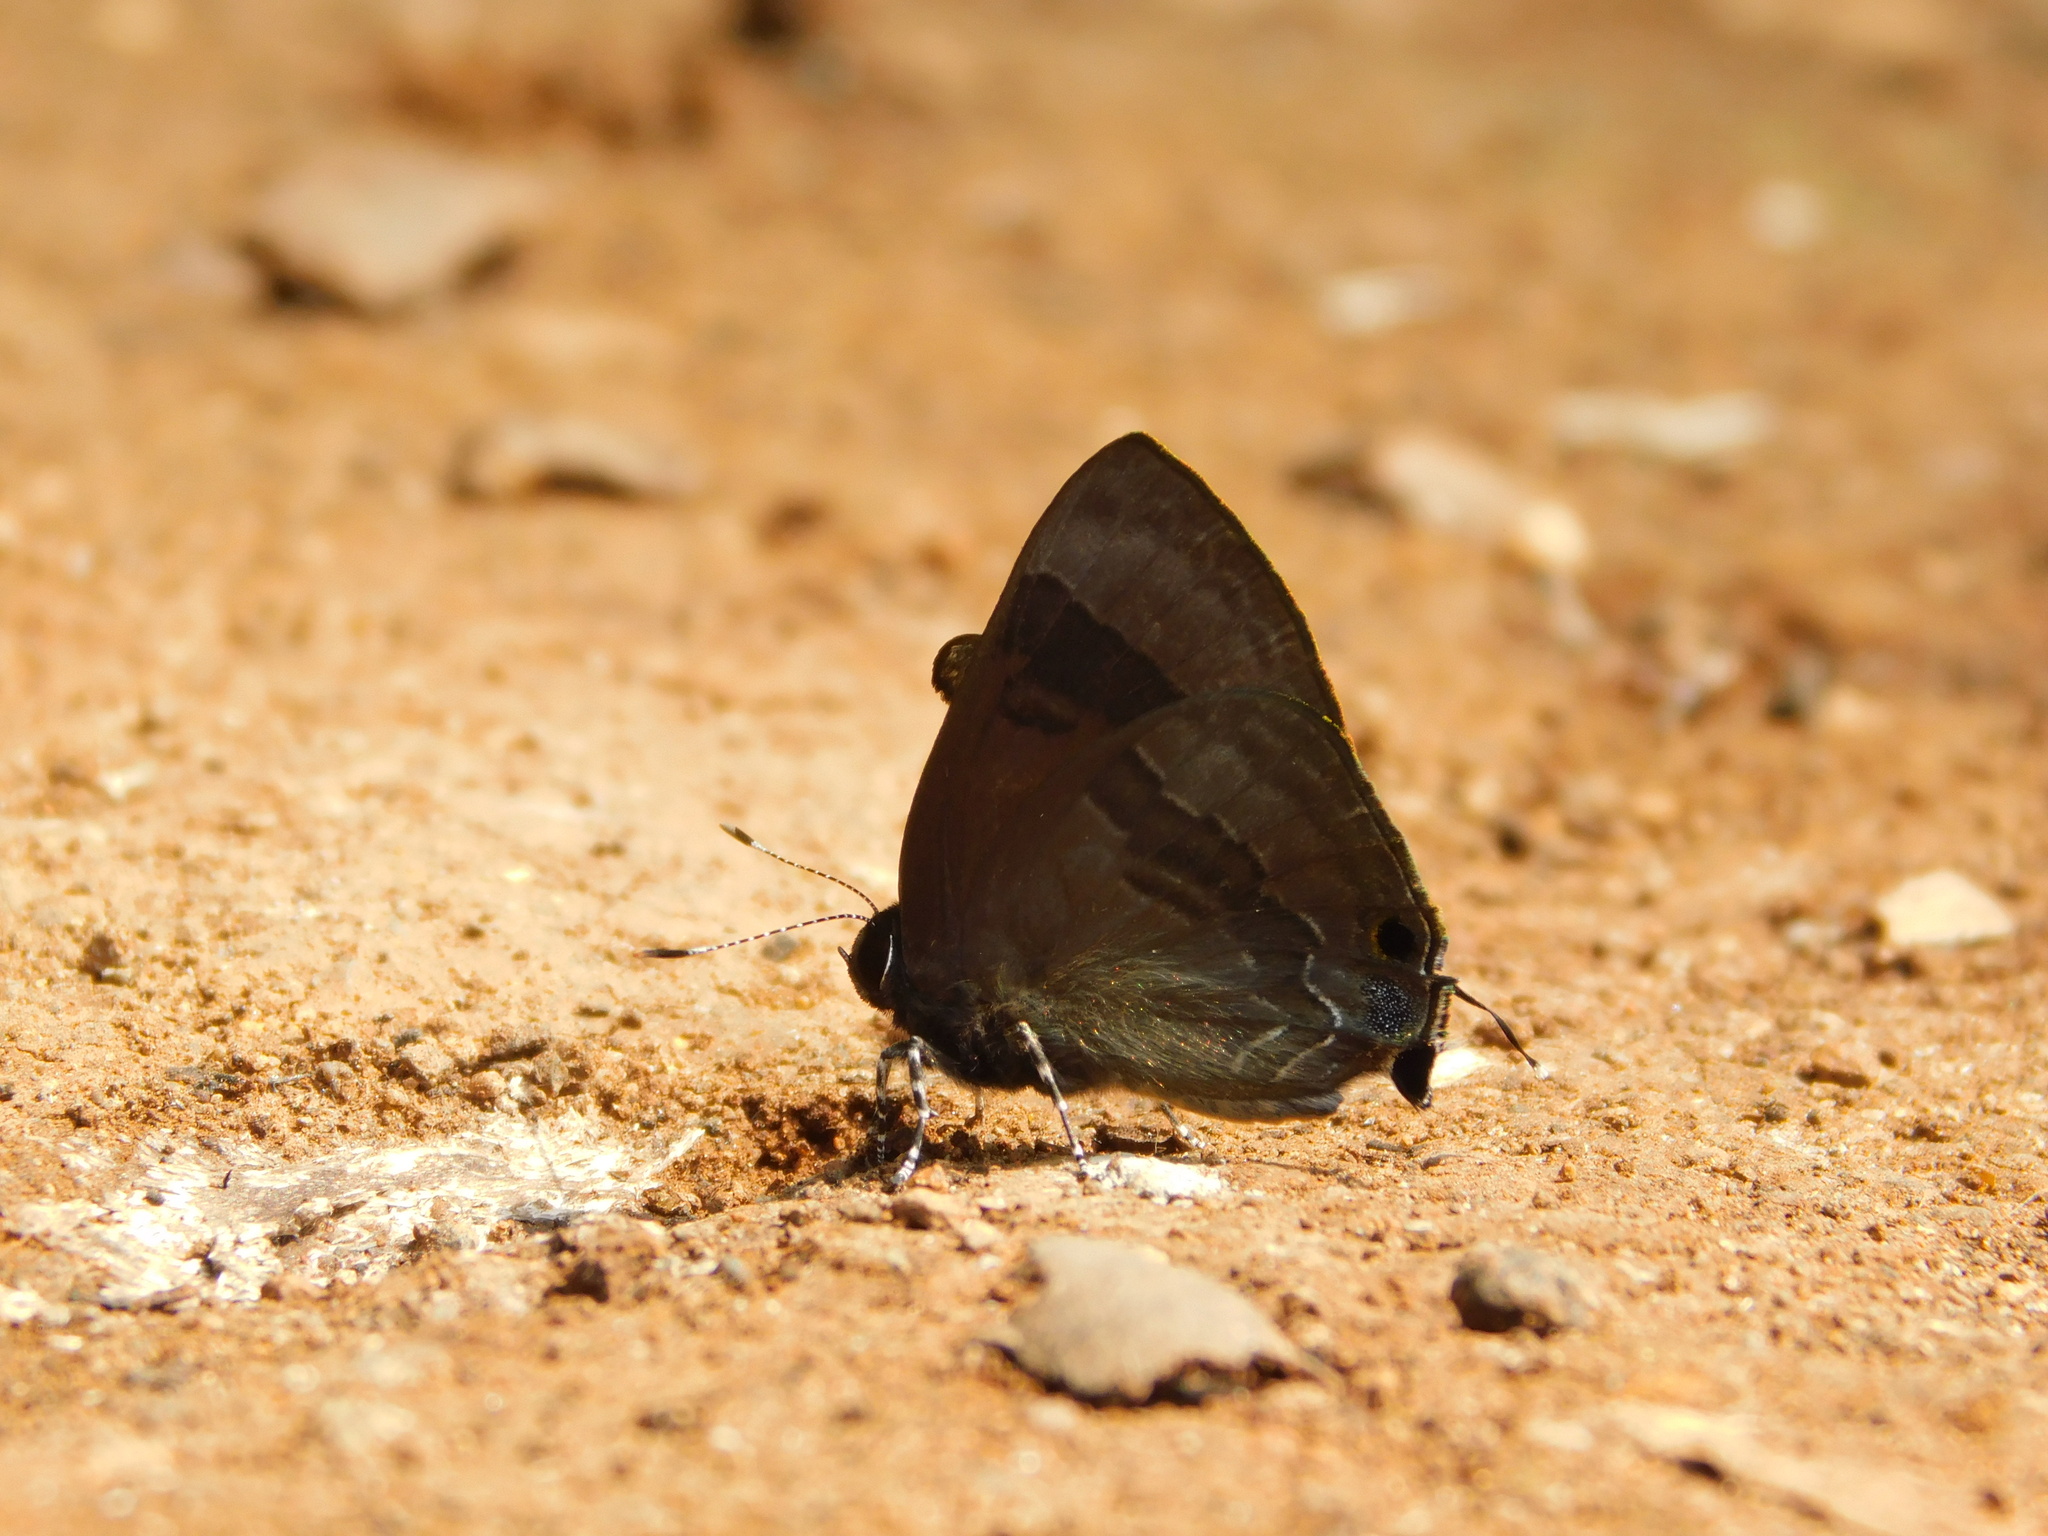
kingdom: Animalia
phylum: Arthropoda
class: Insecta
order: Lepidoptera
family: Lycaenidae
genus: Rapala
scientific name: Rapala varuna
